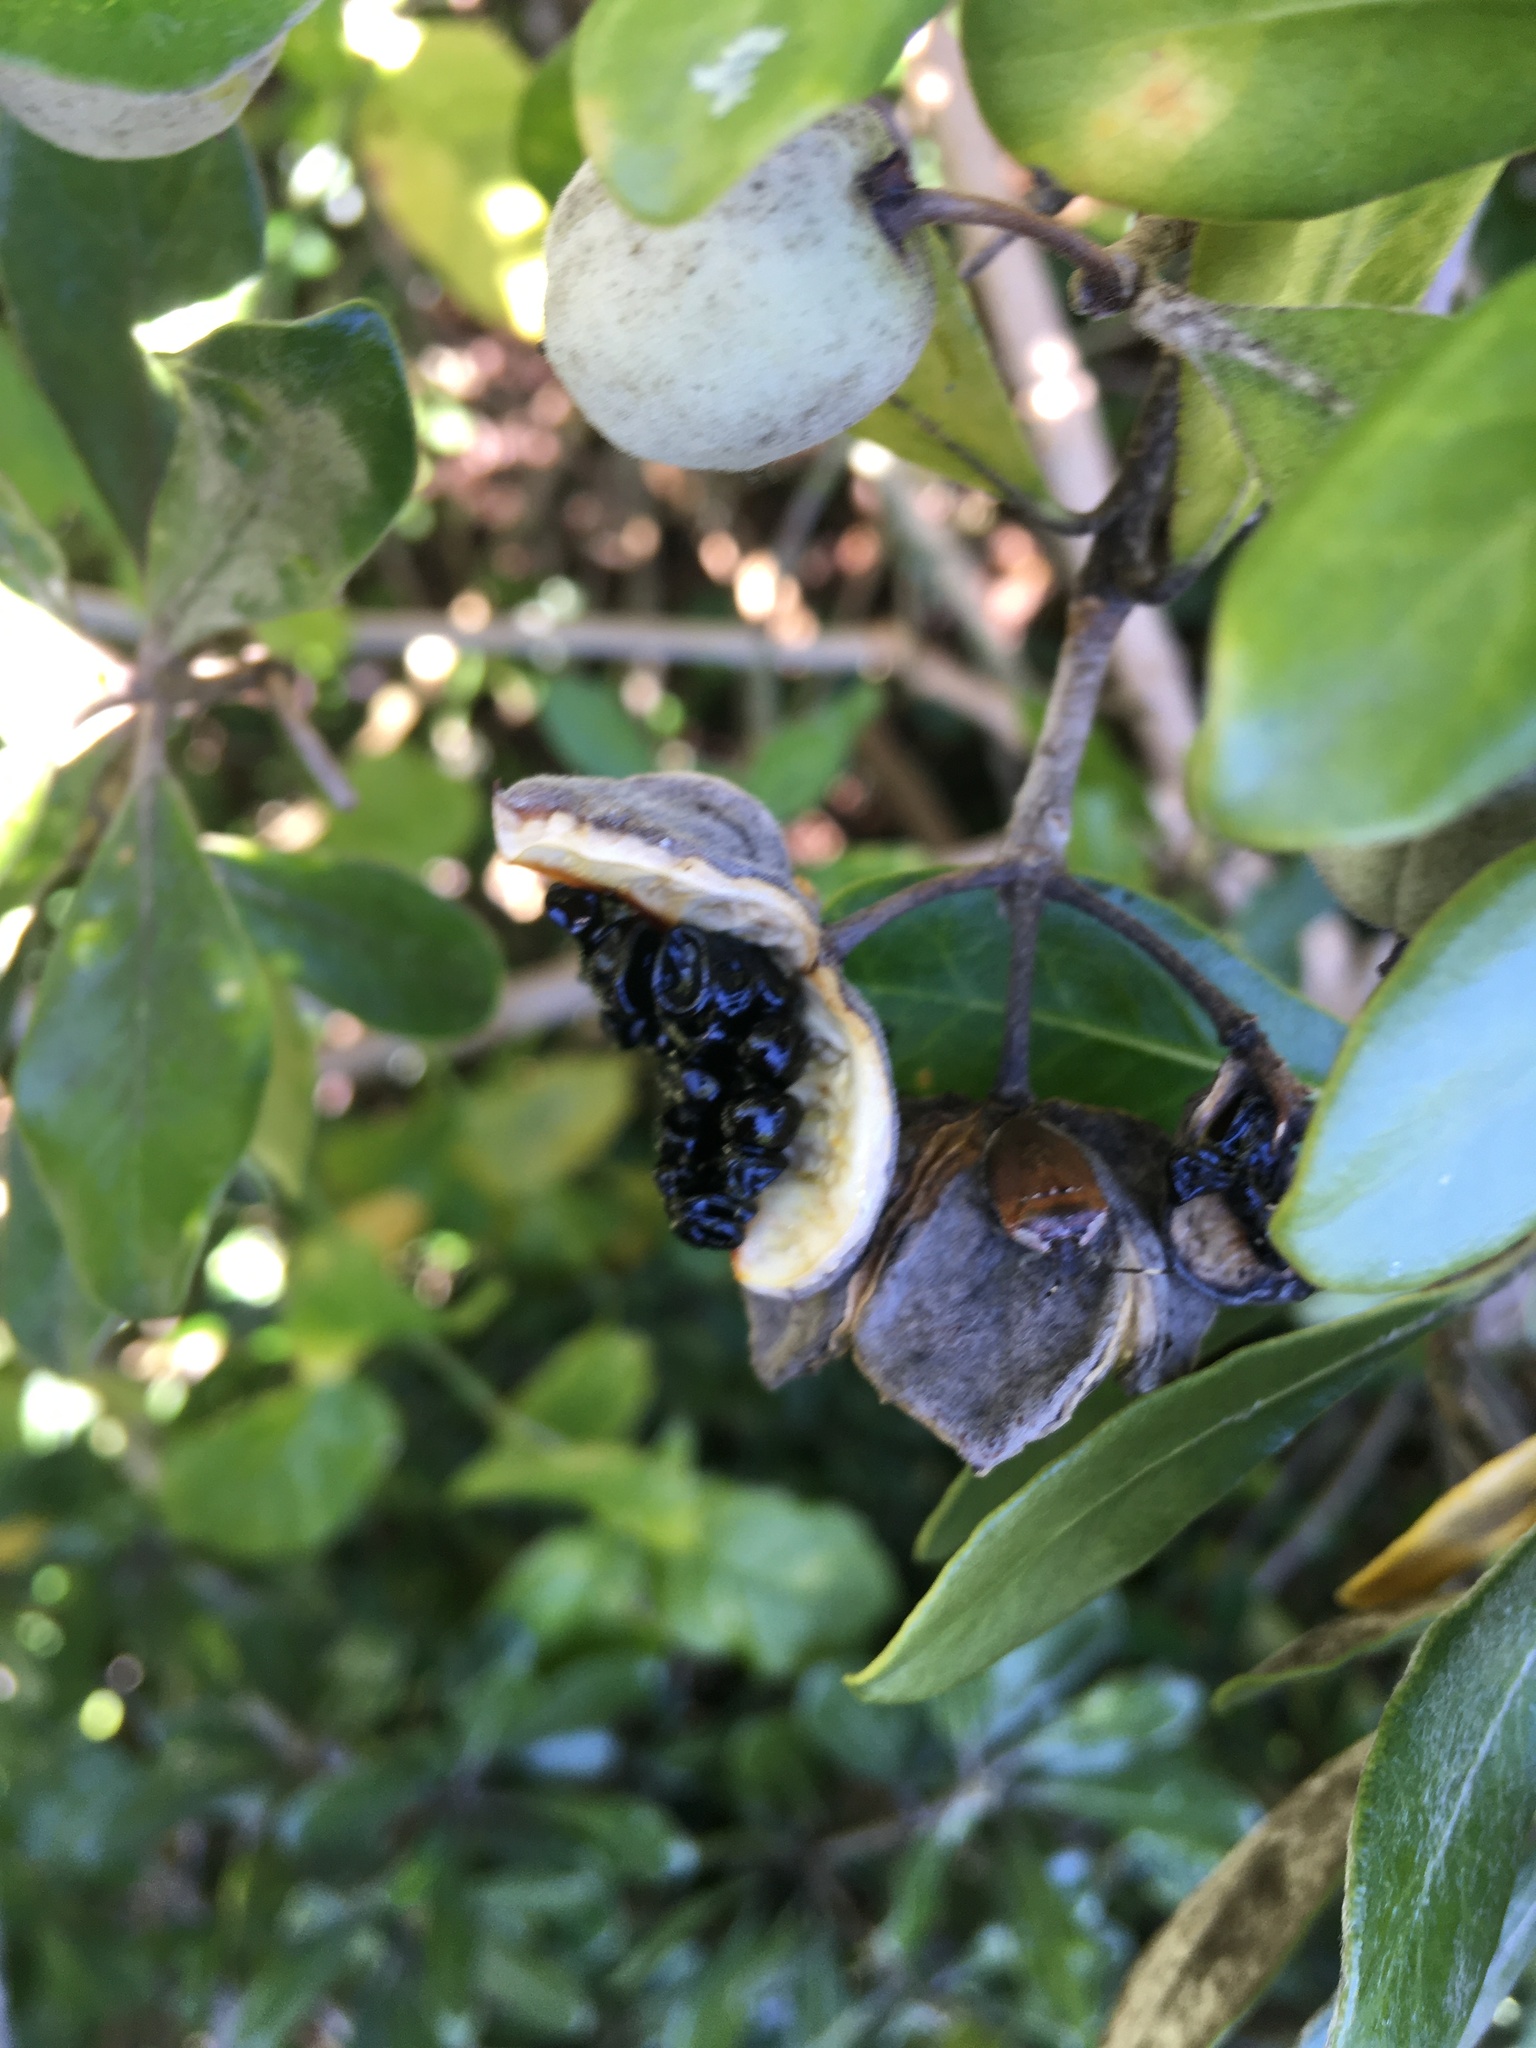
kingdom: Plantae
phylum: Tracheophyta
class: Magnoliopsida
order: Apiales
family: Pittosporaceae
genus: Pittosporum
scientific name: Pittosporum crassifolium
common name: Karo
